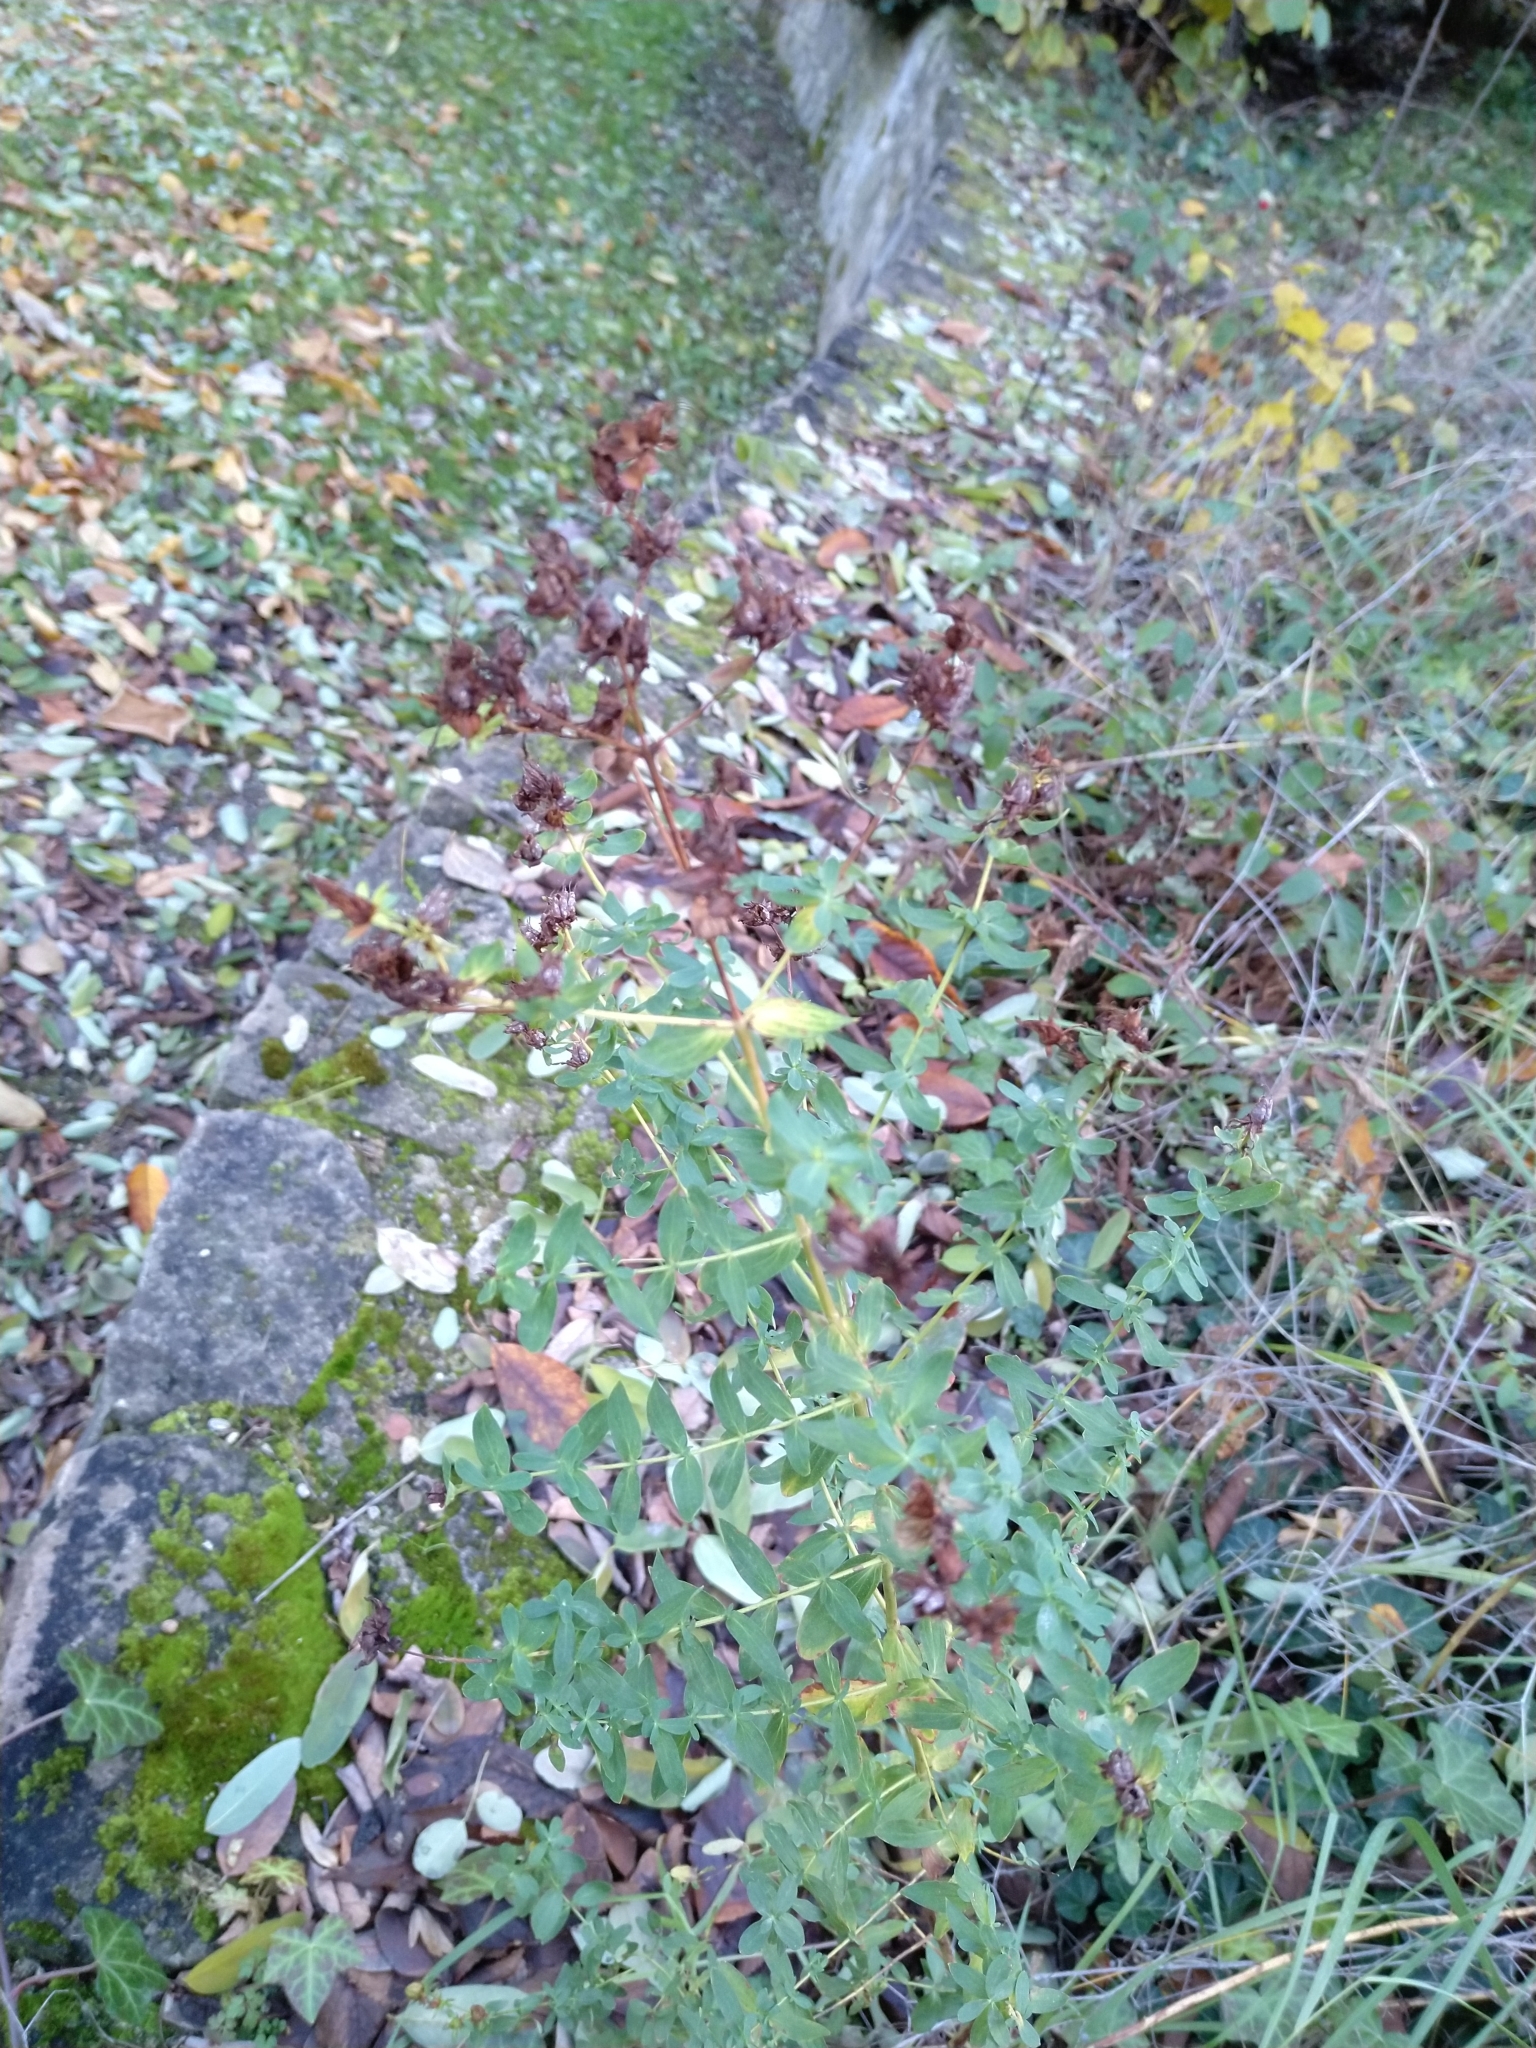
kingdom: Plantae
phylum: Tracheophyta
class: Magnoliopsida
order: Malpighiales
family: Hypericaceae
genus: Hypericum
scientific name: Hypericum perforatum
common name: Common st. johnswort
